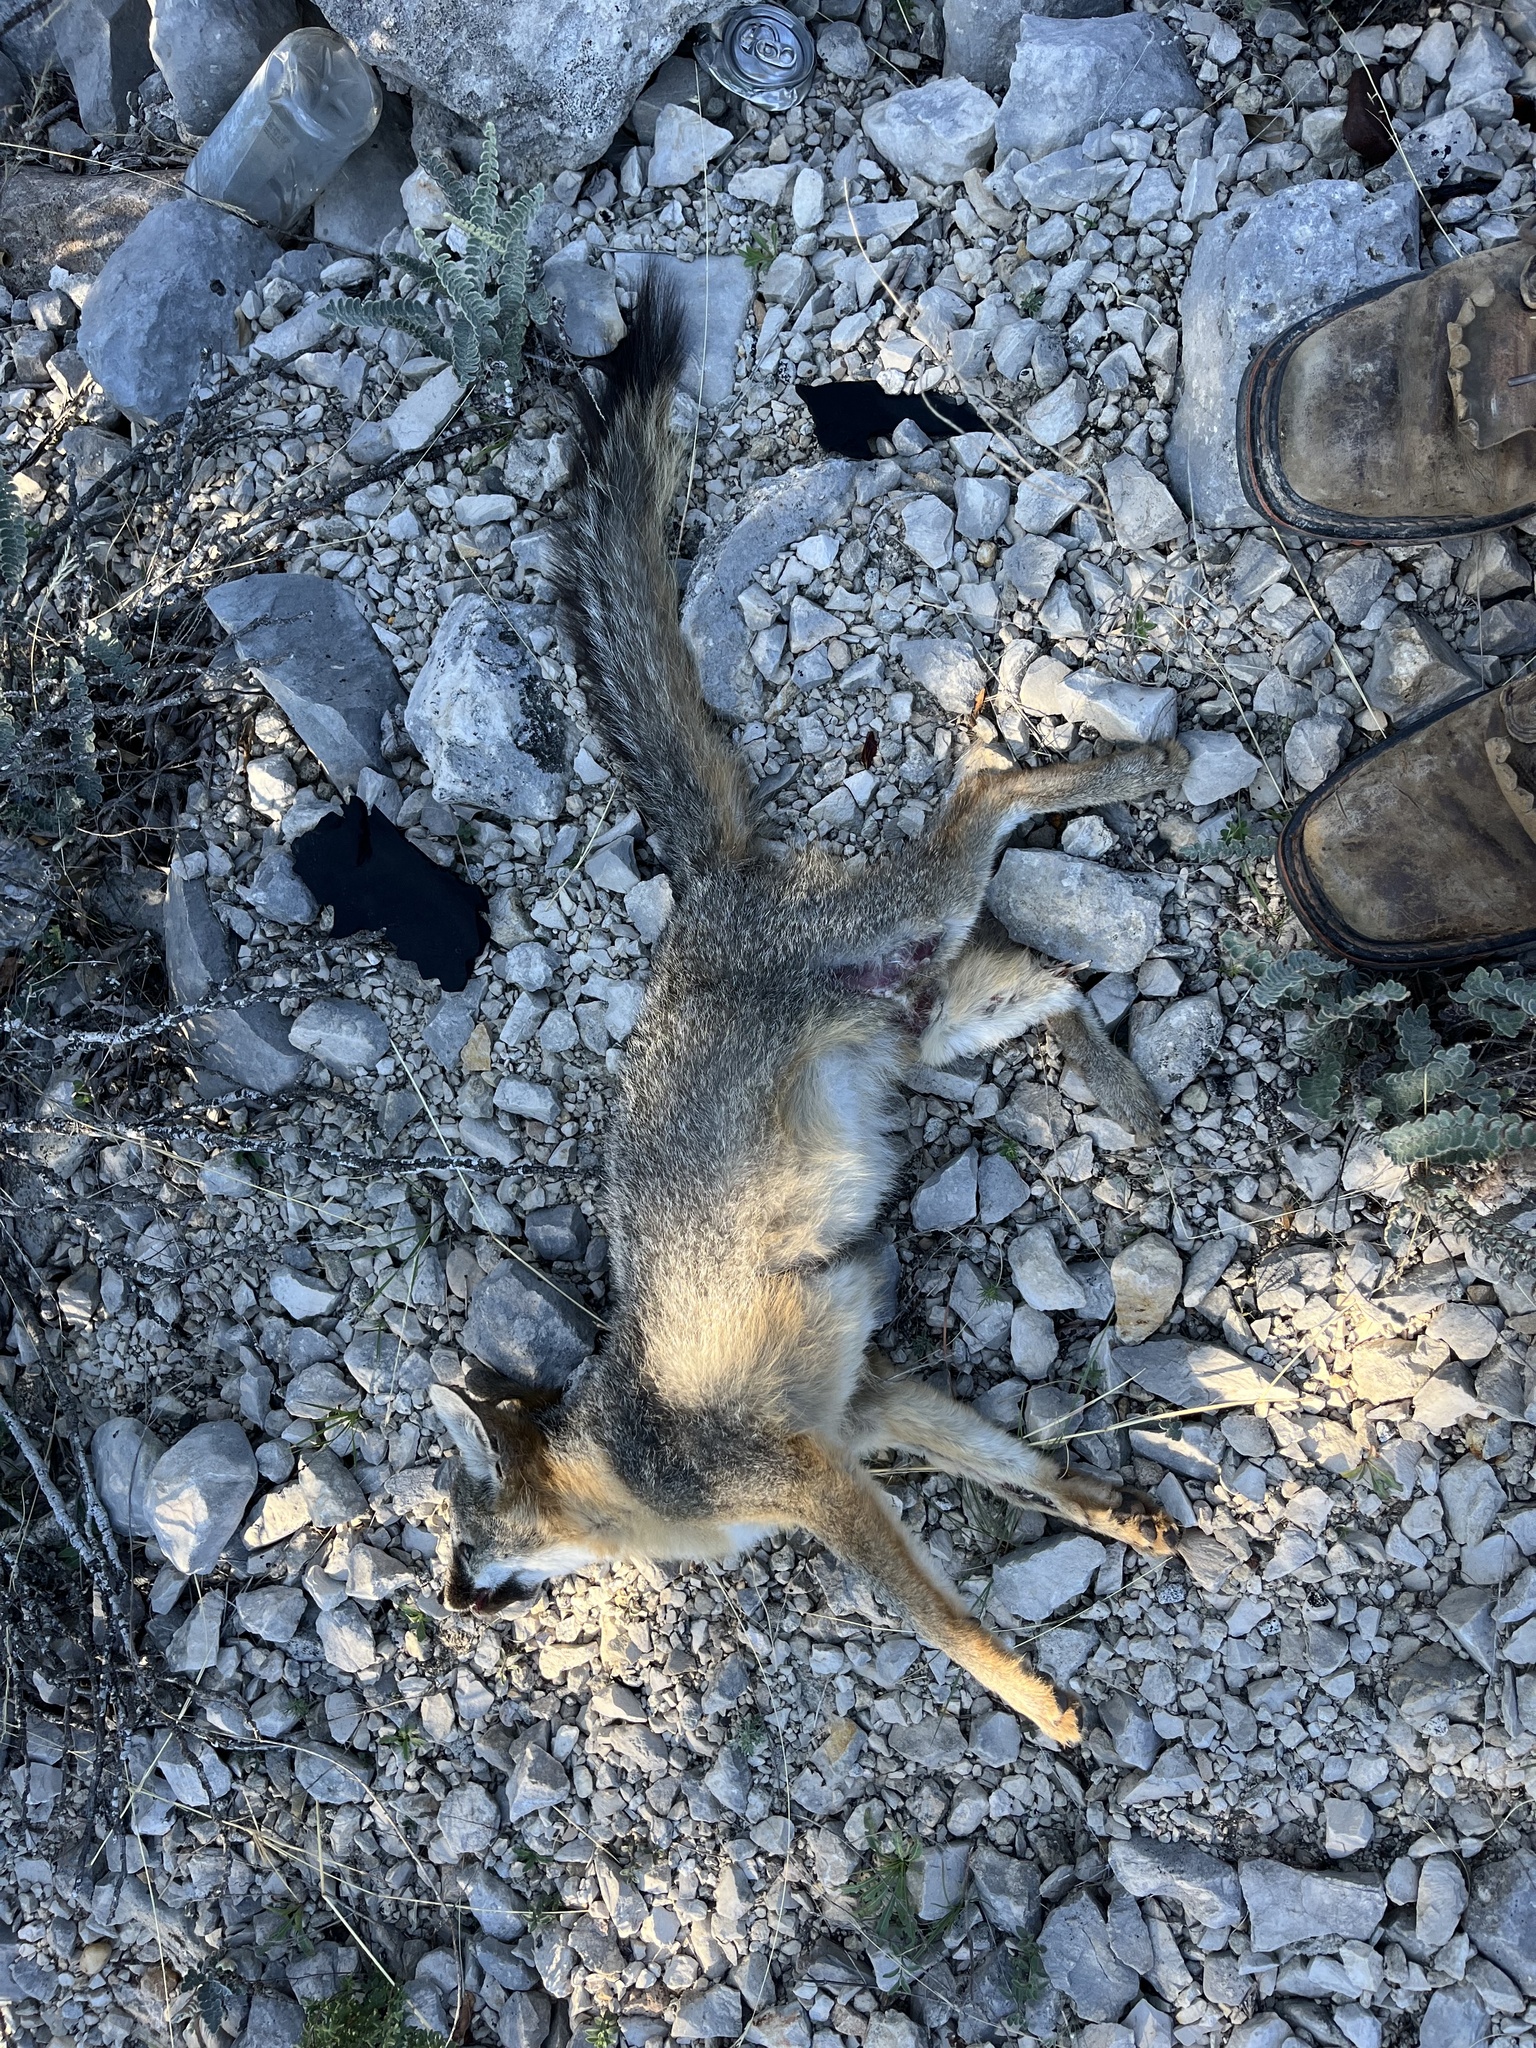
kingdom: Animalia
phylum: Chordata
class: Mammalia
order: Carnivora
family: Canidae
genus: Urocyon
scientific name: Urocyon cinereoargenteus
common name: Gray fox
